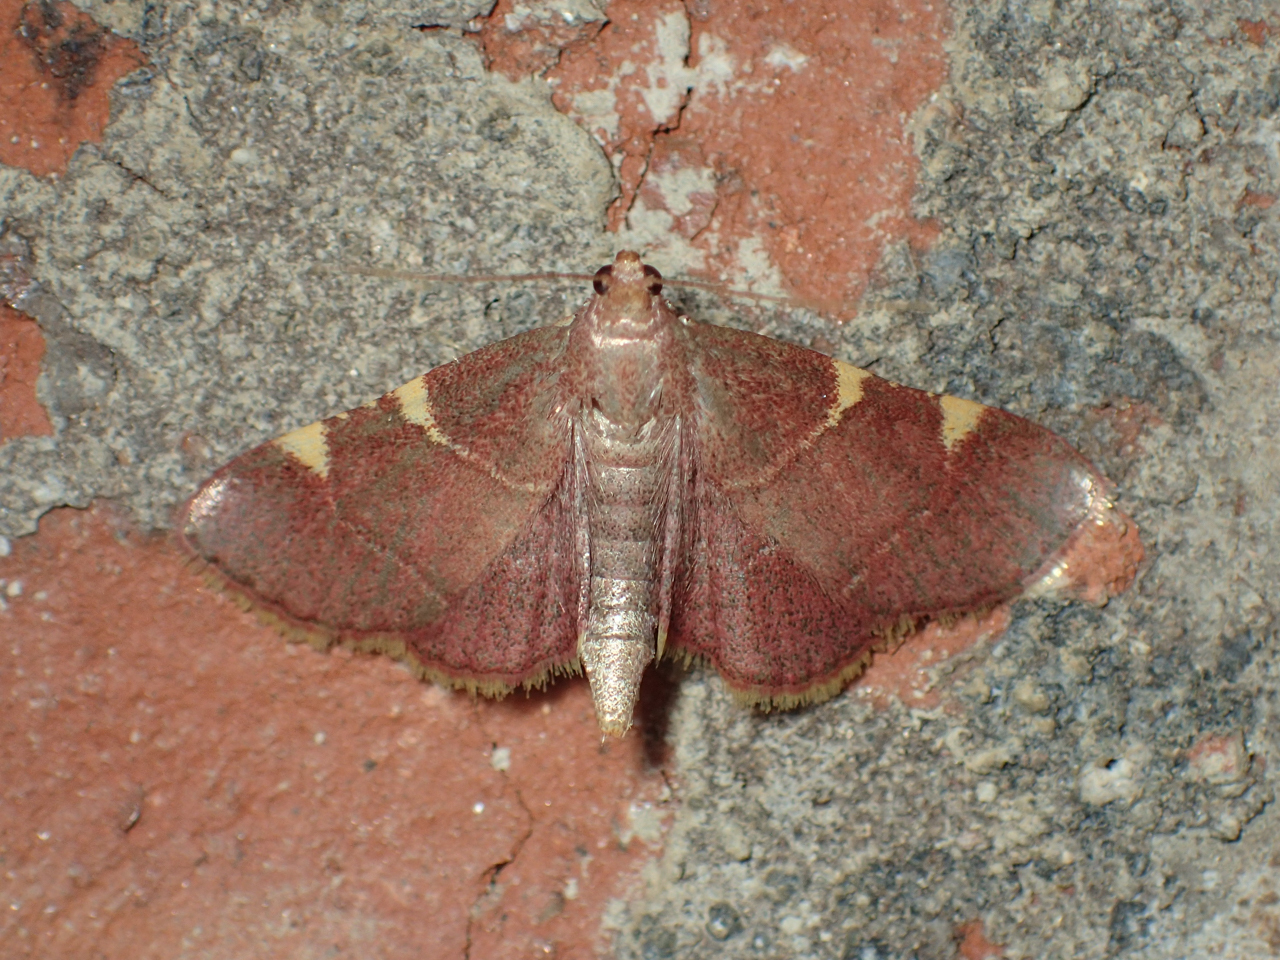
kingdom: Animalia
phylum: Arthropoda
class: Insecta
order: Lepidoptera
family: Pyralidae
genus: Hypsopygia
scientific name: Hypsopygia olinalis
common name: Yellow-fringed dolichomia moth
